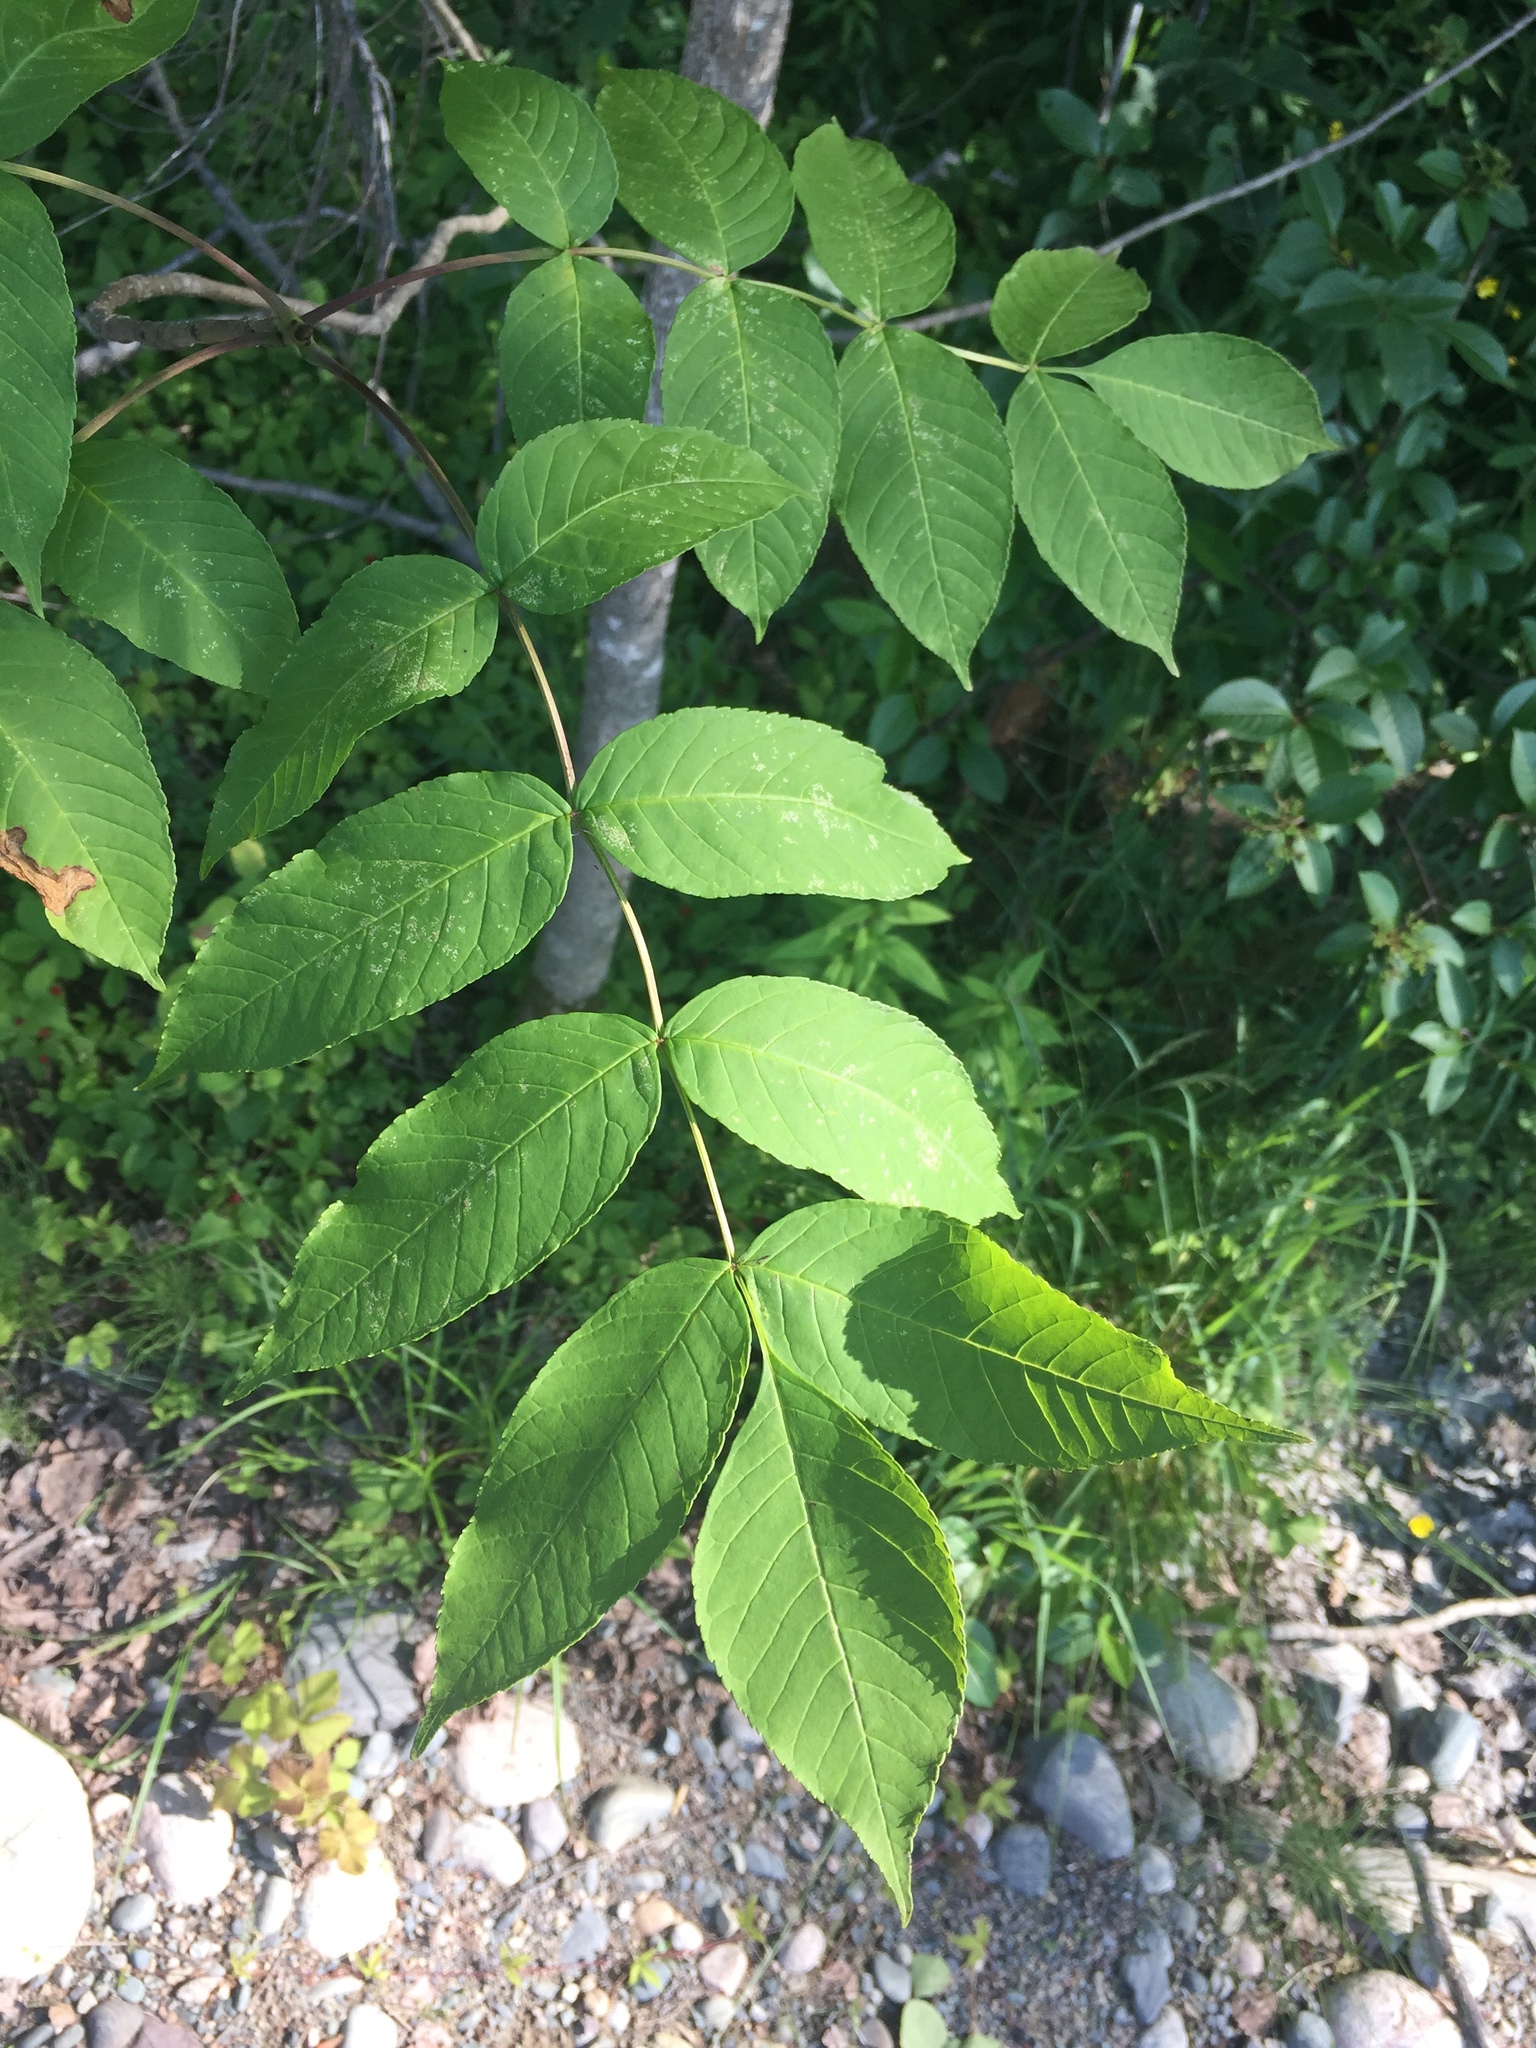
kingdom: Plantae
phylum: Tracheophyta
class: Magnoliopsida
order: Lamiales
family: Oleaceae
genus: Fraxinus
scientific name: Fraxinus nigra
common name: Black ash
